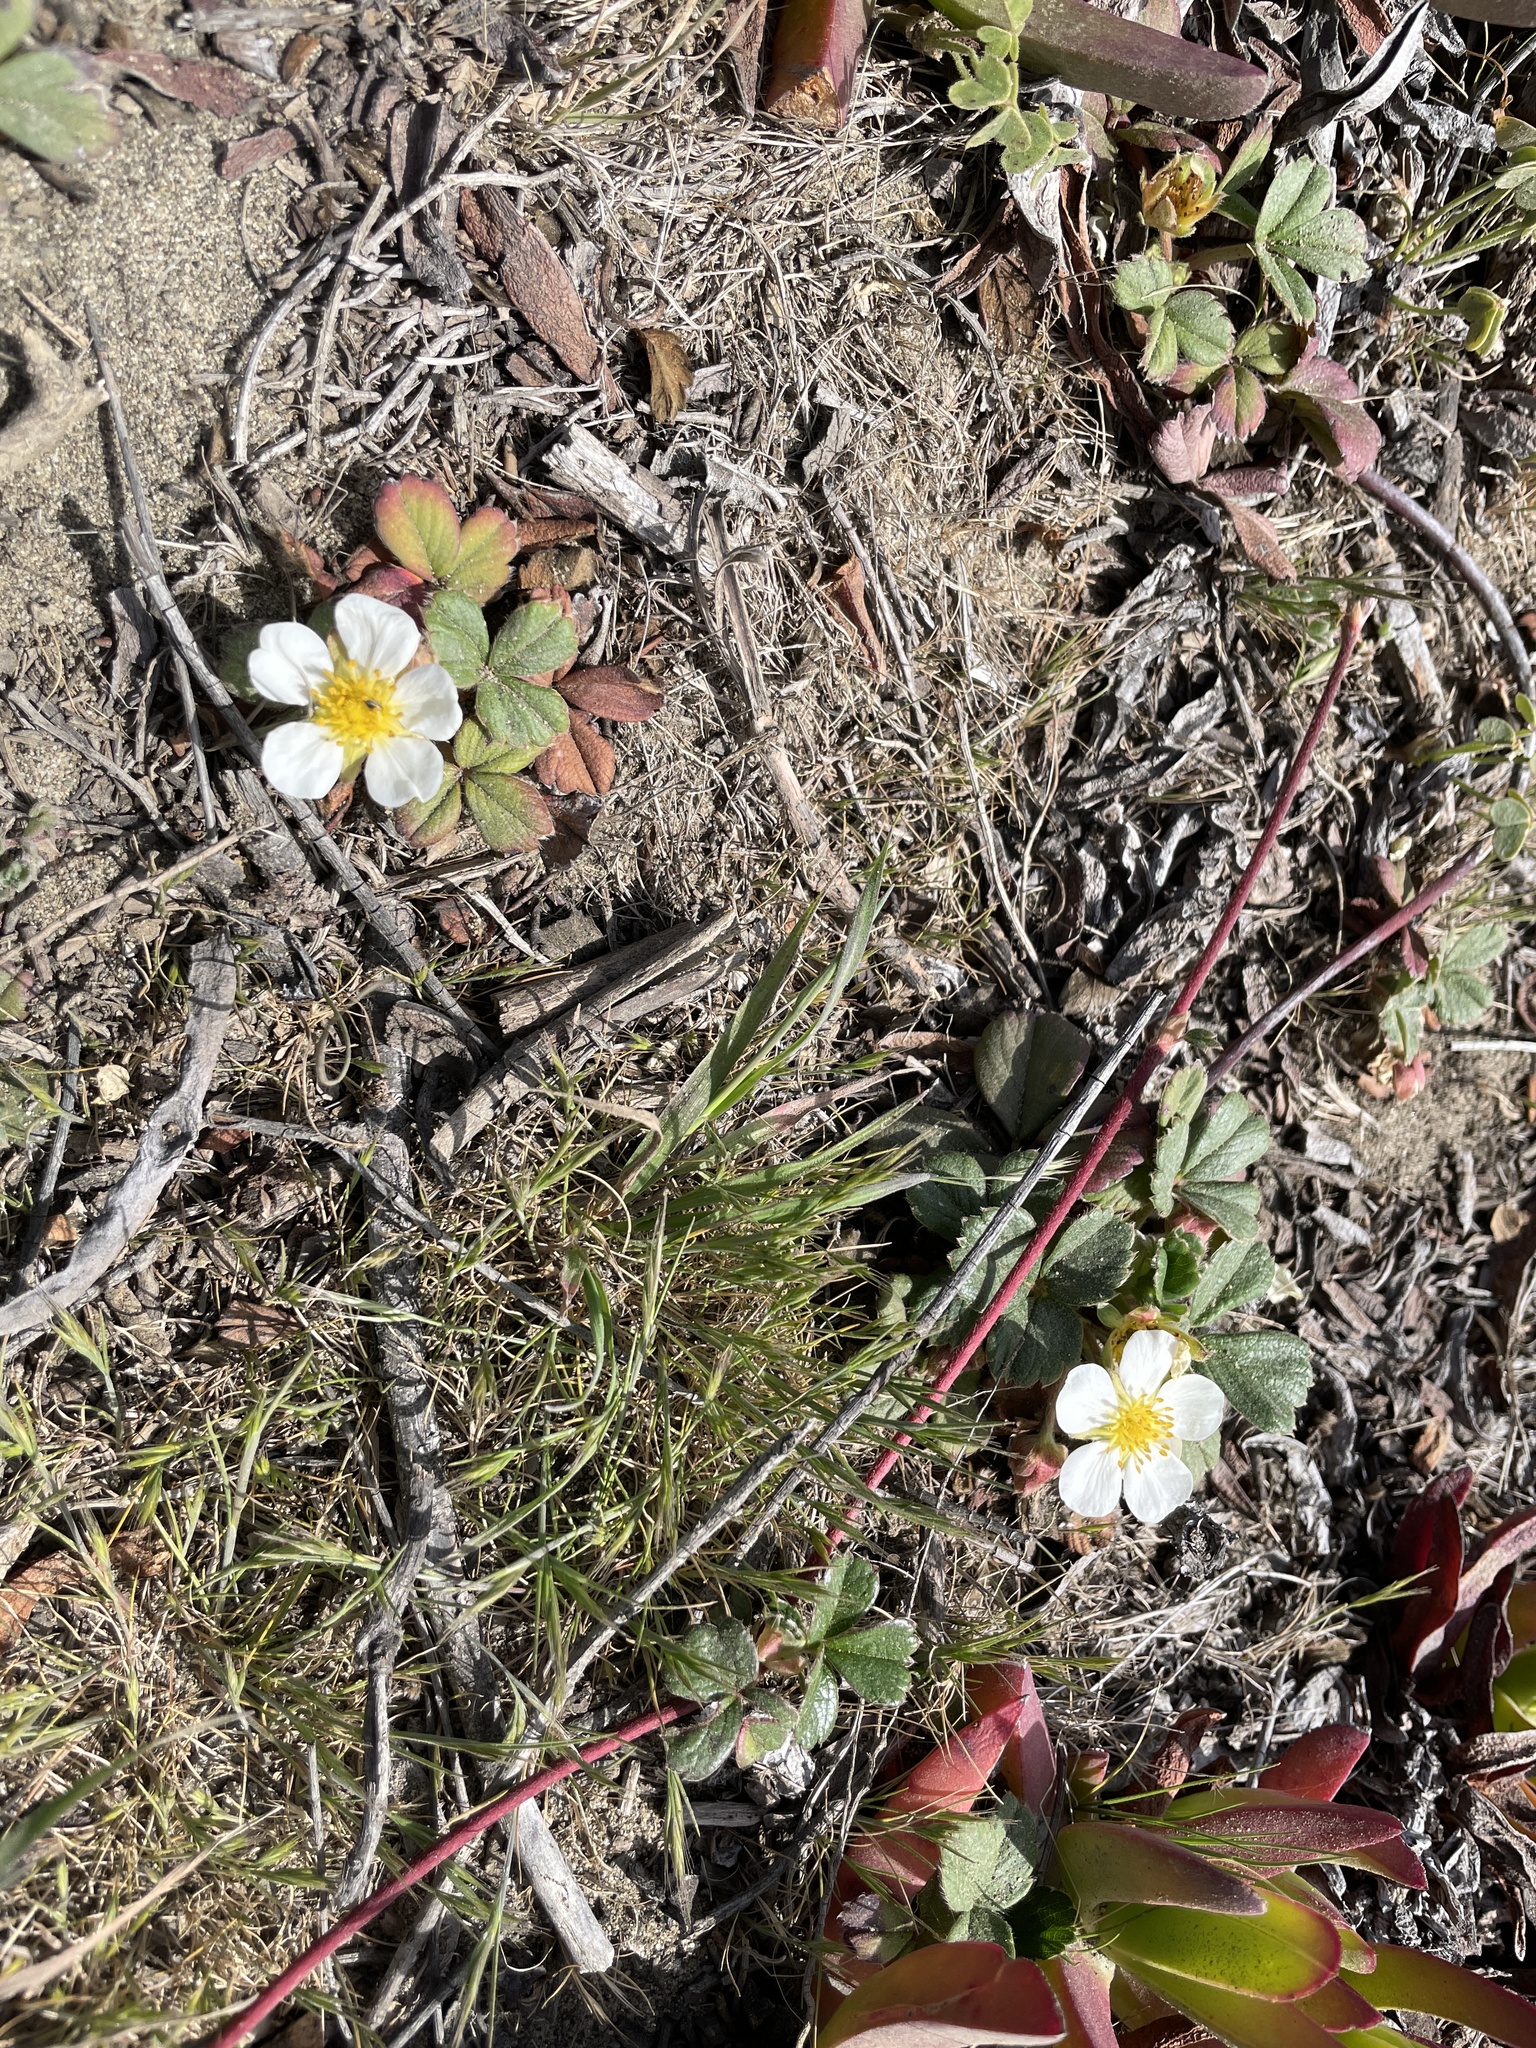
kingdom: Plantae
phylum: Tracheophyta
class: Magnoliopsida
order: Rosales
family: Rosaceae
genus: Fragaria
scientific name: Fragaria chiloensis
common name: Beach strawberry
